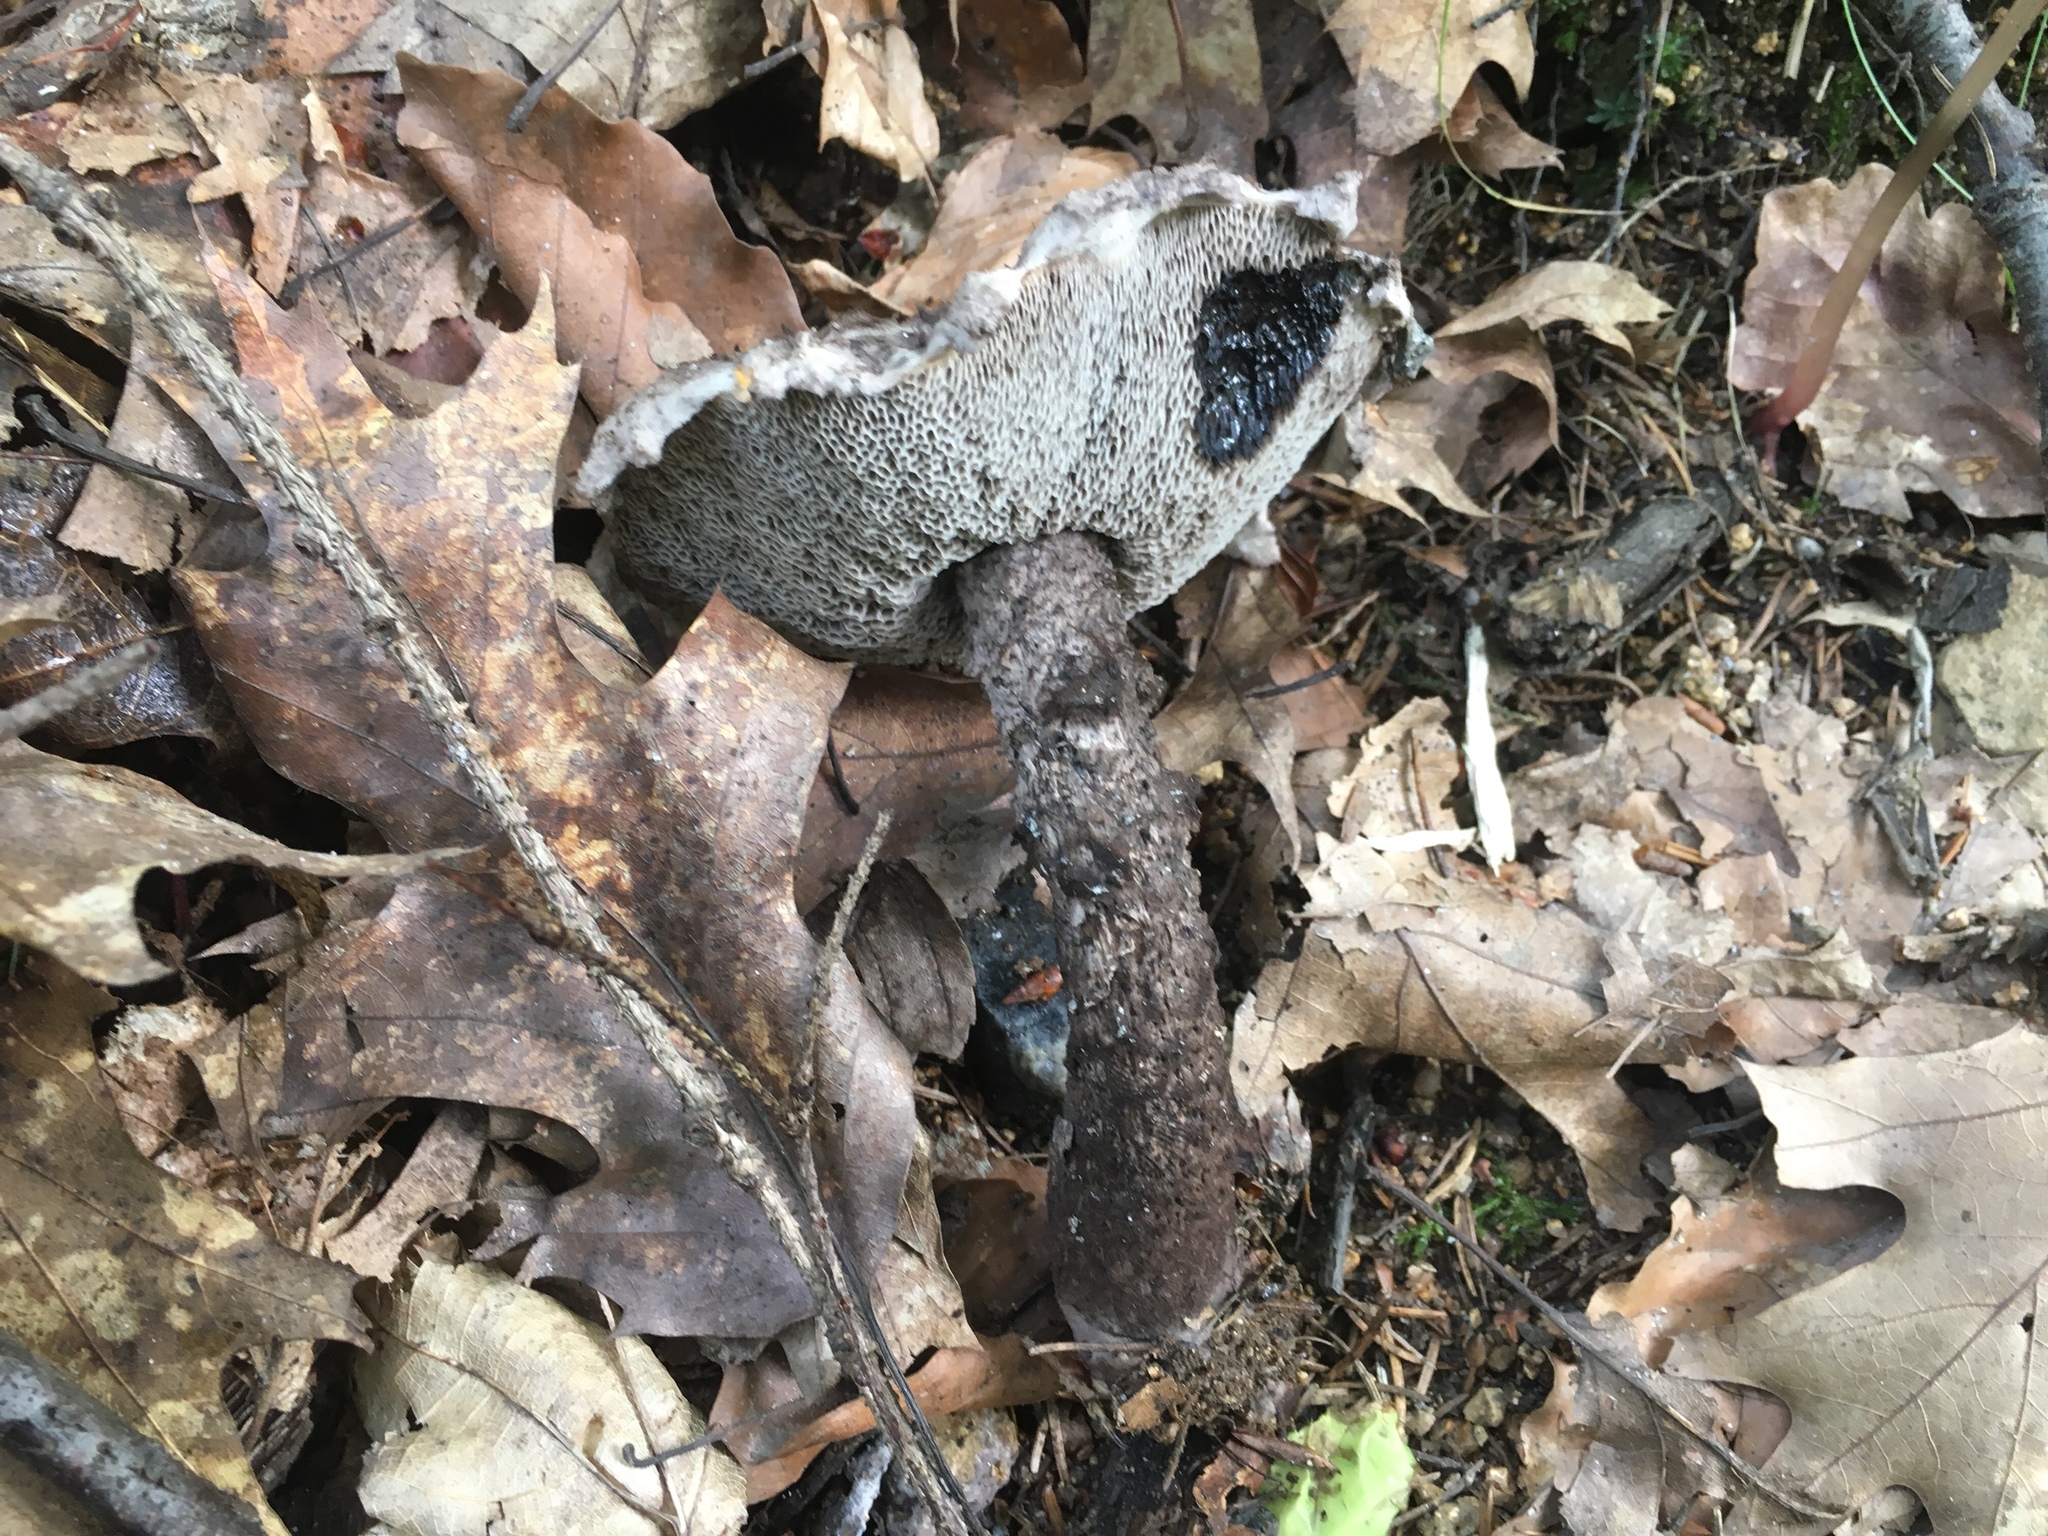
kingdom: Fungi
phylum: Basidiomycota
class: Agaricomycetes
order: Boletales
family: Boletaceae
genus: Strobilomyces
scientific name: Strobilomyces strobilaceus
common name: Old man of the woods
